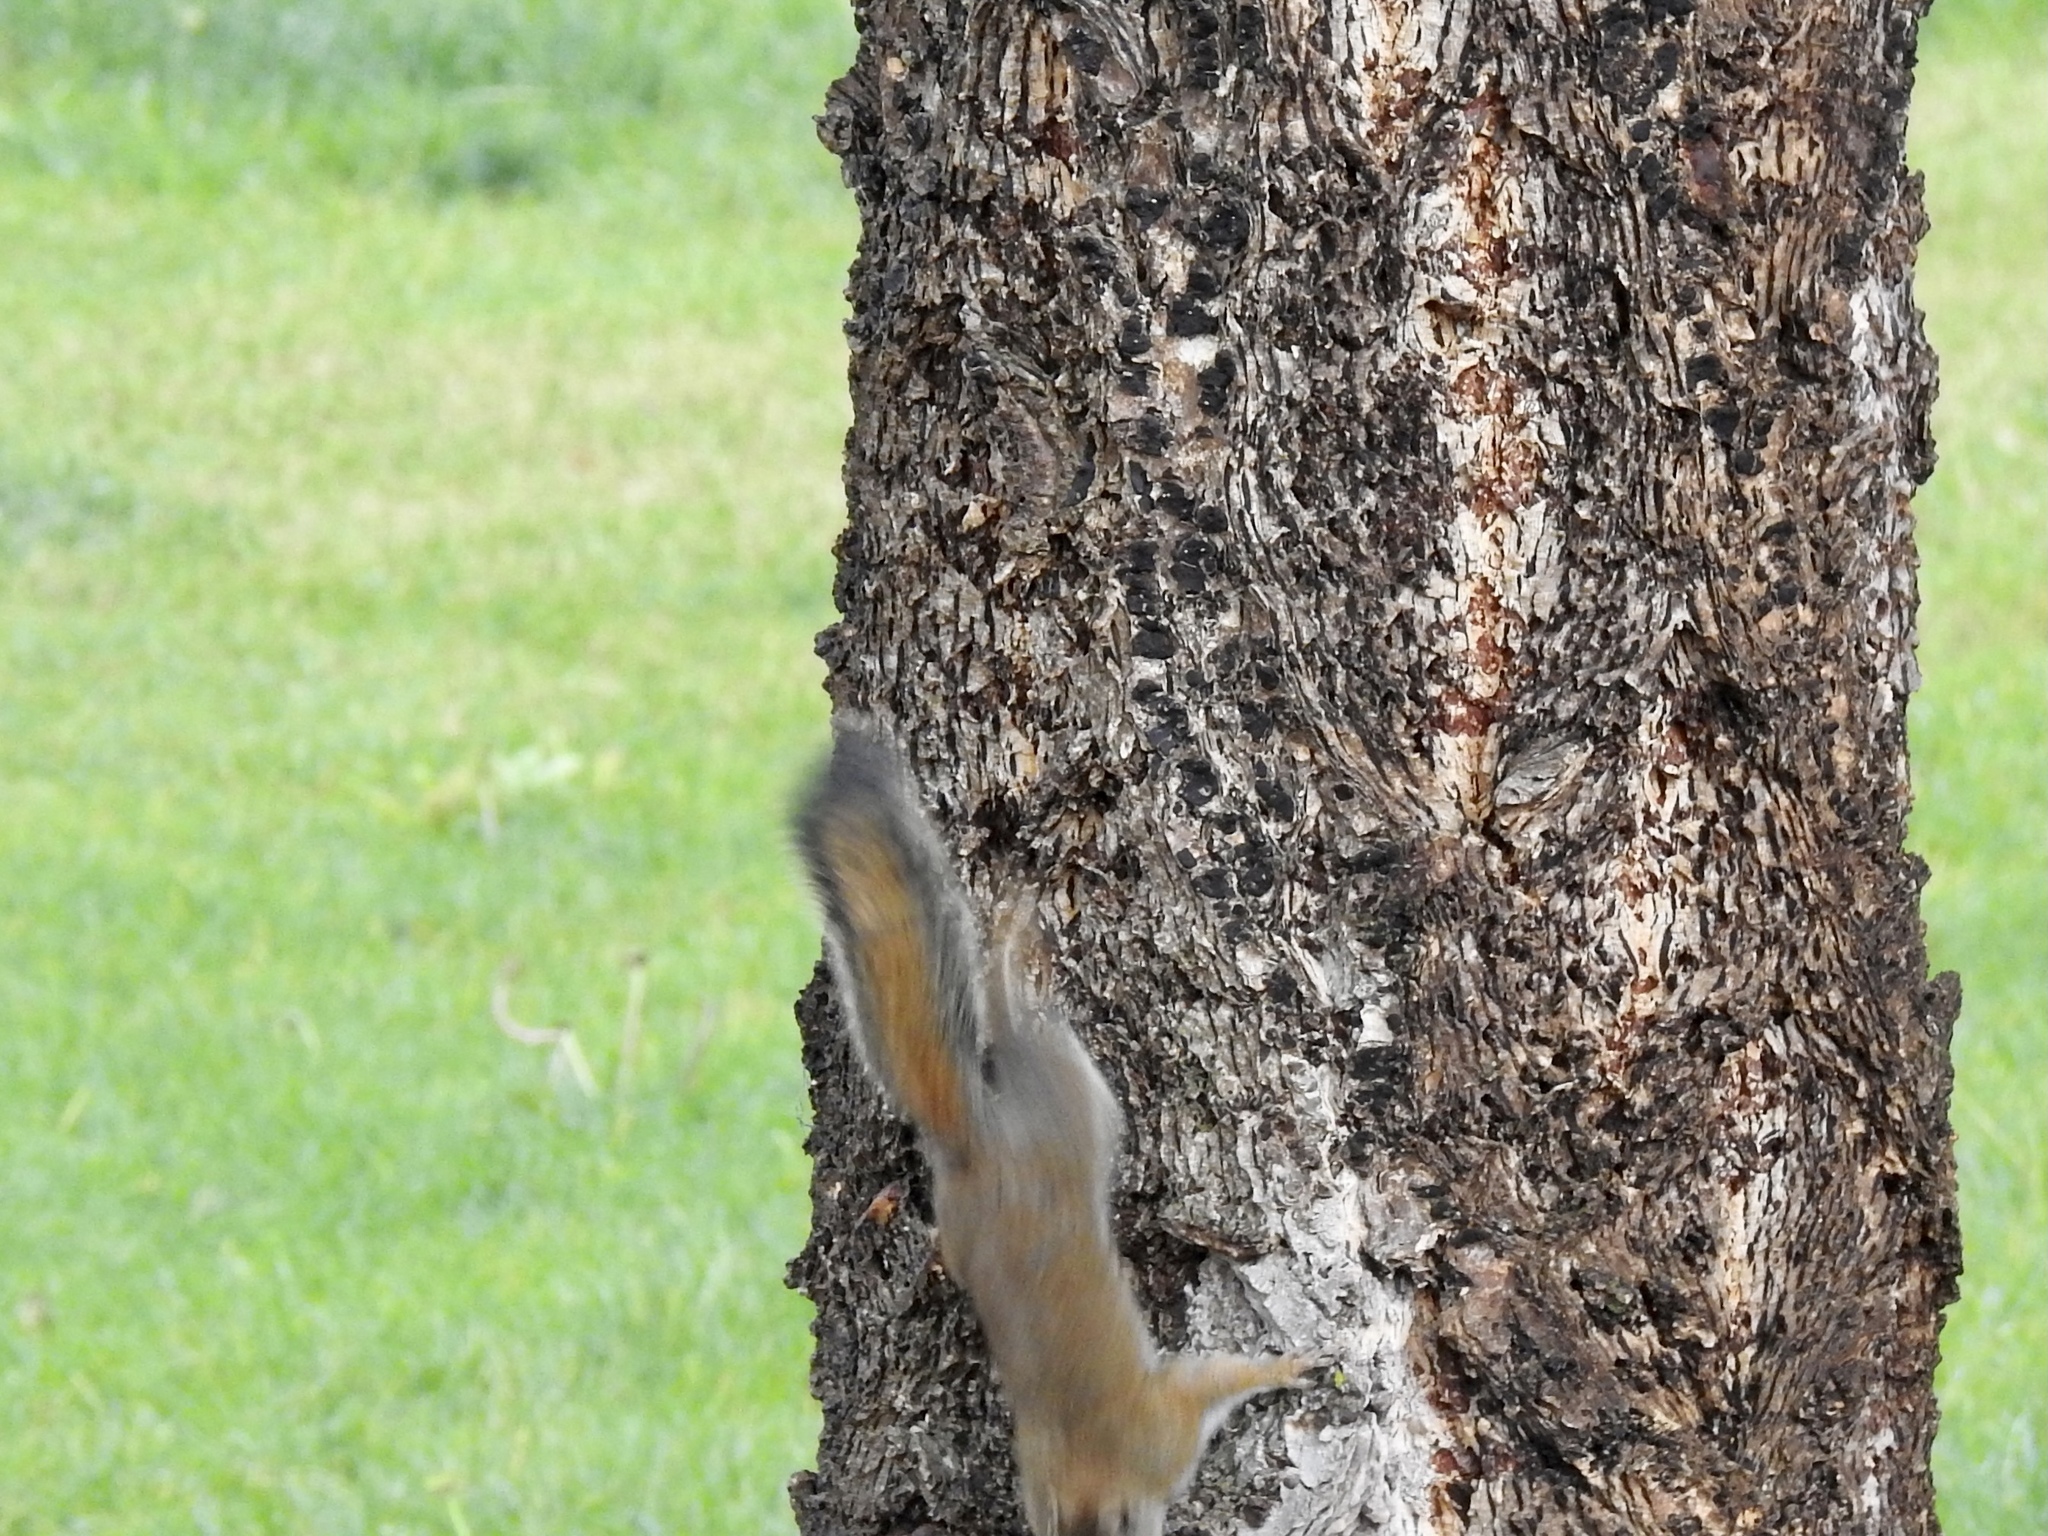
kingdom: Animalia
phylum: Chordata
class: Mammalia
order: Rodentia
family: Sciuridae
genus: Tamiasciurus
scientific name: Tamiasciurus hudsonicus
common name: Red squirrel
